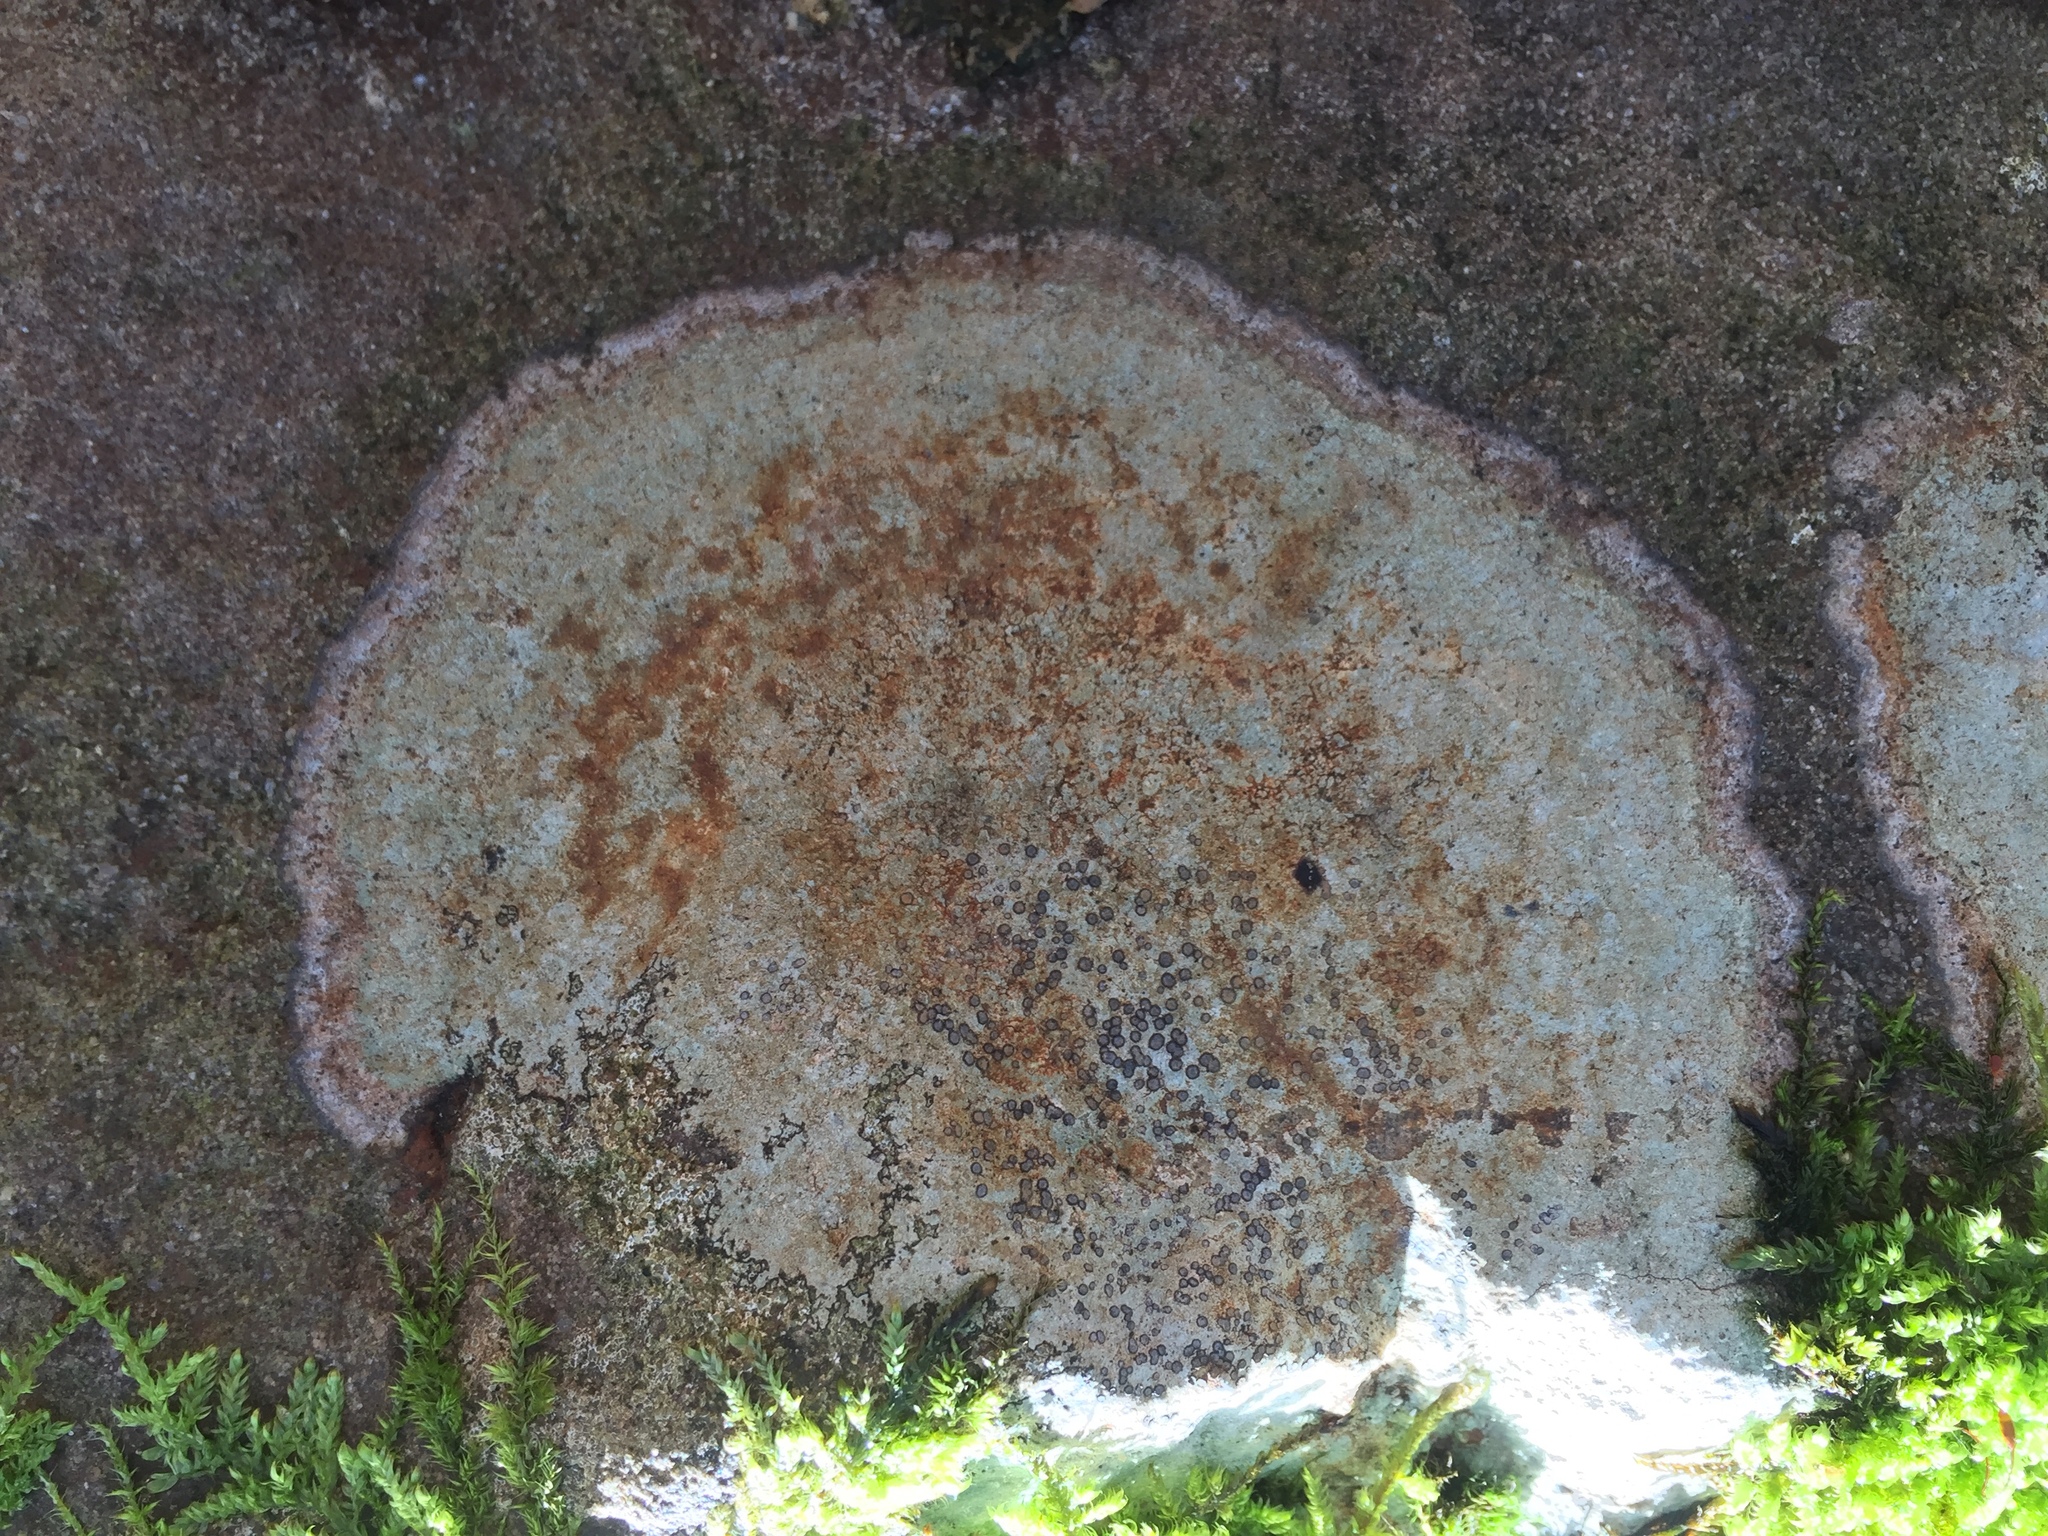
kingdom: Fungi
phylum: Ascomycota
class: Lecanoromycetes
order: Lecideales
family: Lecideaceae
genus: Porpidia
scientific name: Porpidia albocaerulescens
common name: Smokey-eyed boulder lichen
